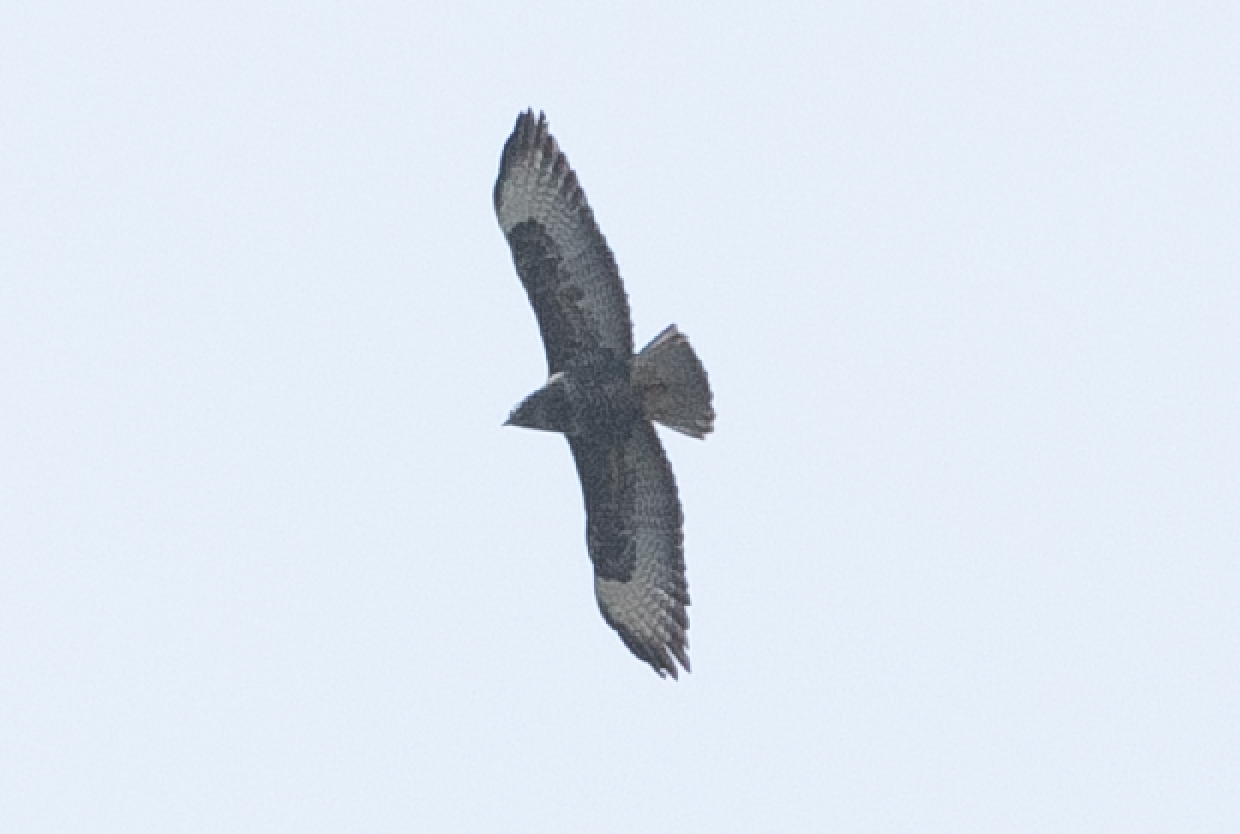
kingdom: Animalia
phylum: Chordata
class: Aves
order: Accipitriformes
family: Accipitridae
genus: Buteo
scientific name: Buteo buteo
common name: Common buzzard
